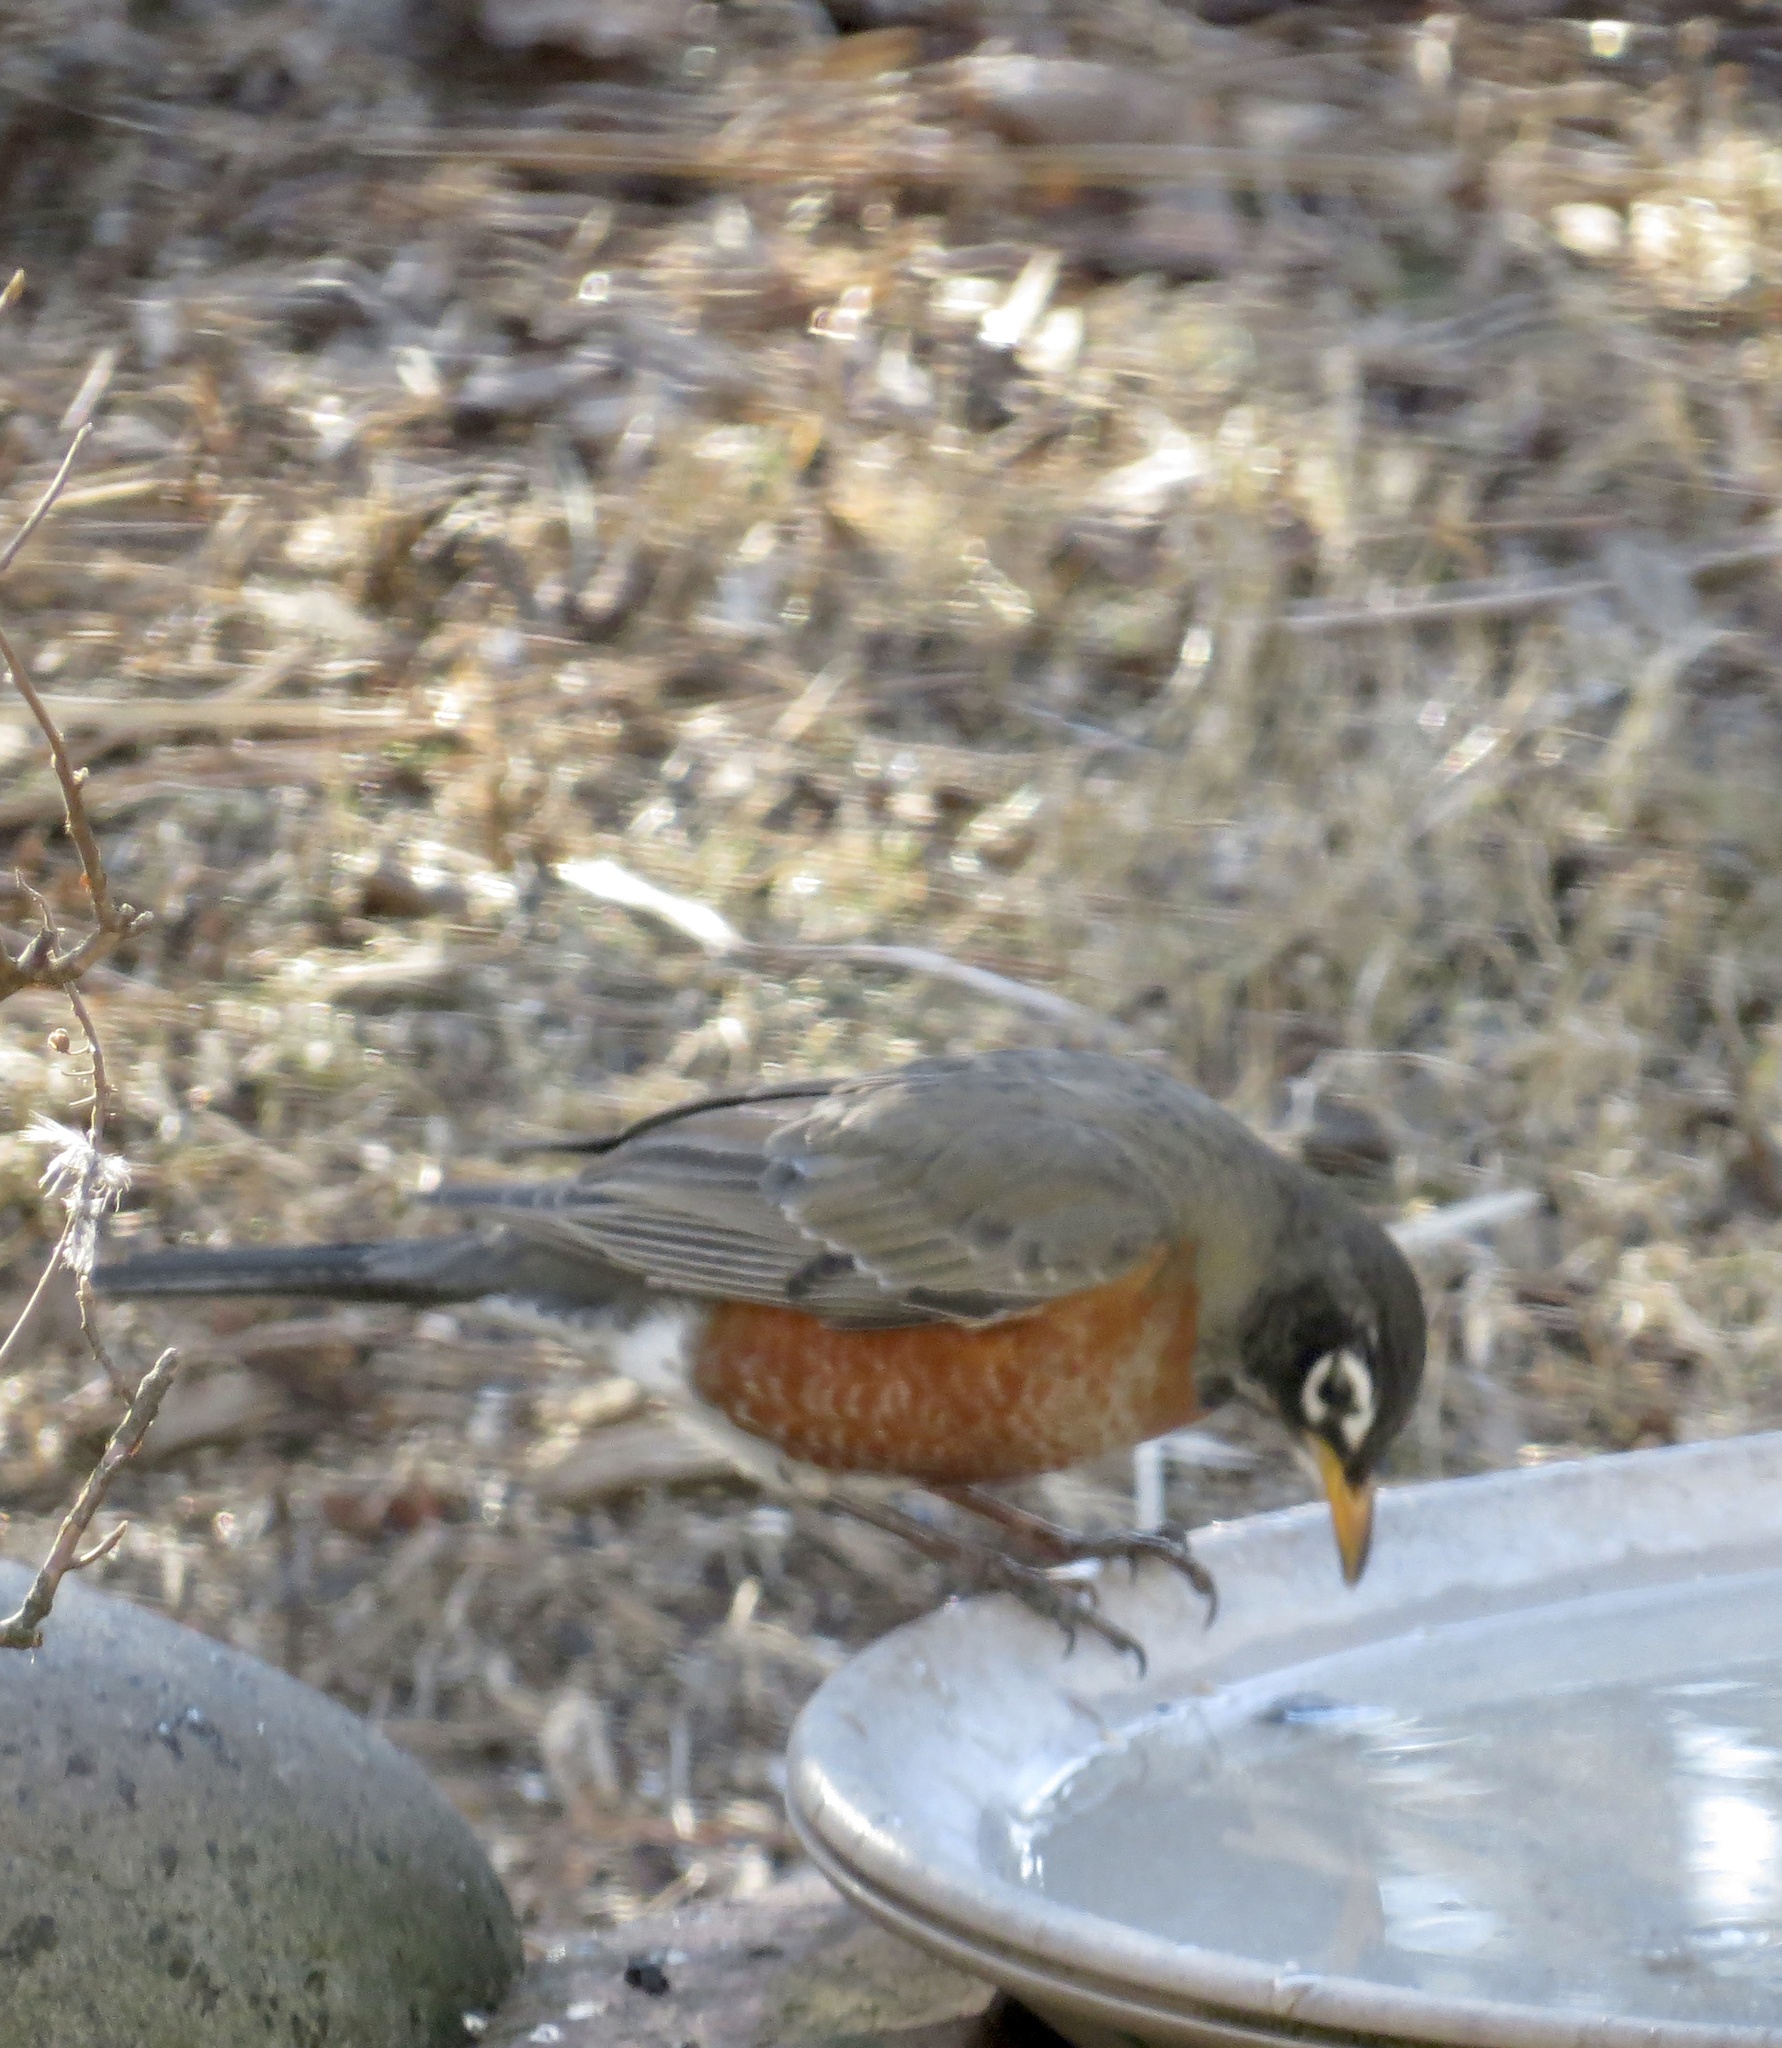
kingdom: Animalia
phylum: Chordata
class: Aves
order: Passeriformes
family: Turdidae
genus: Turdus
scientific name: Turdus migratorius
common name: American robin
